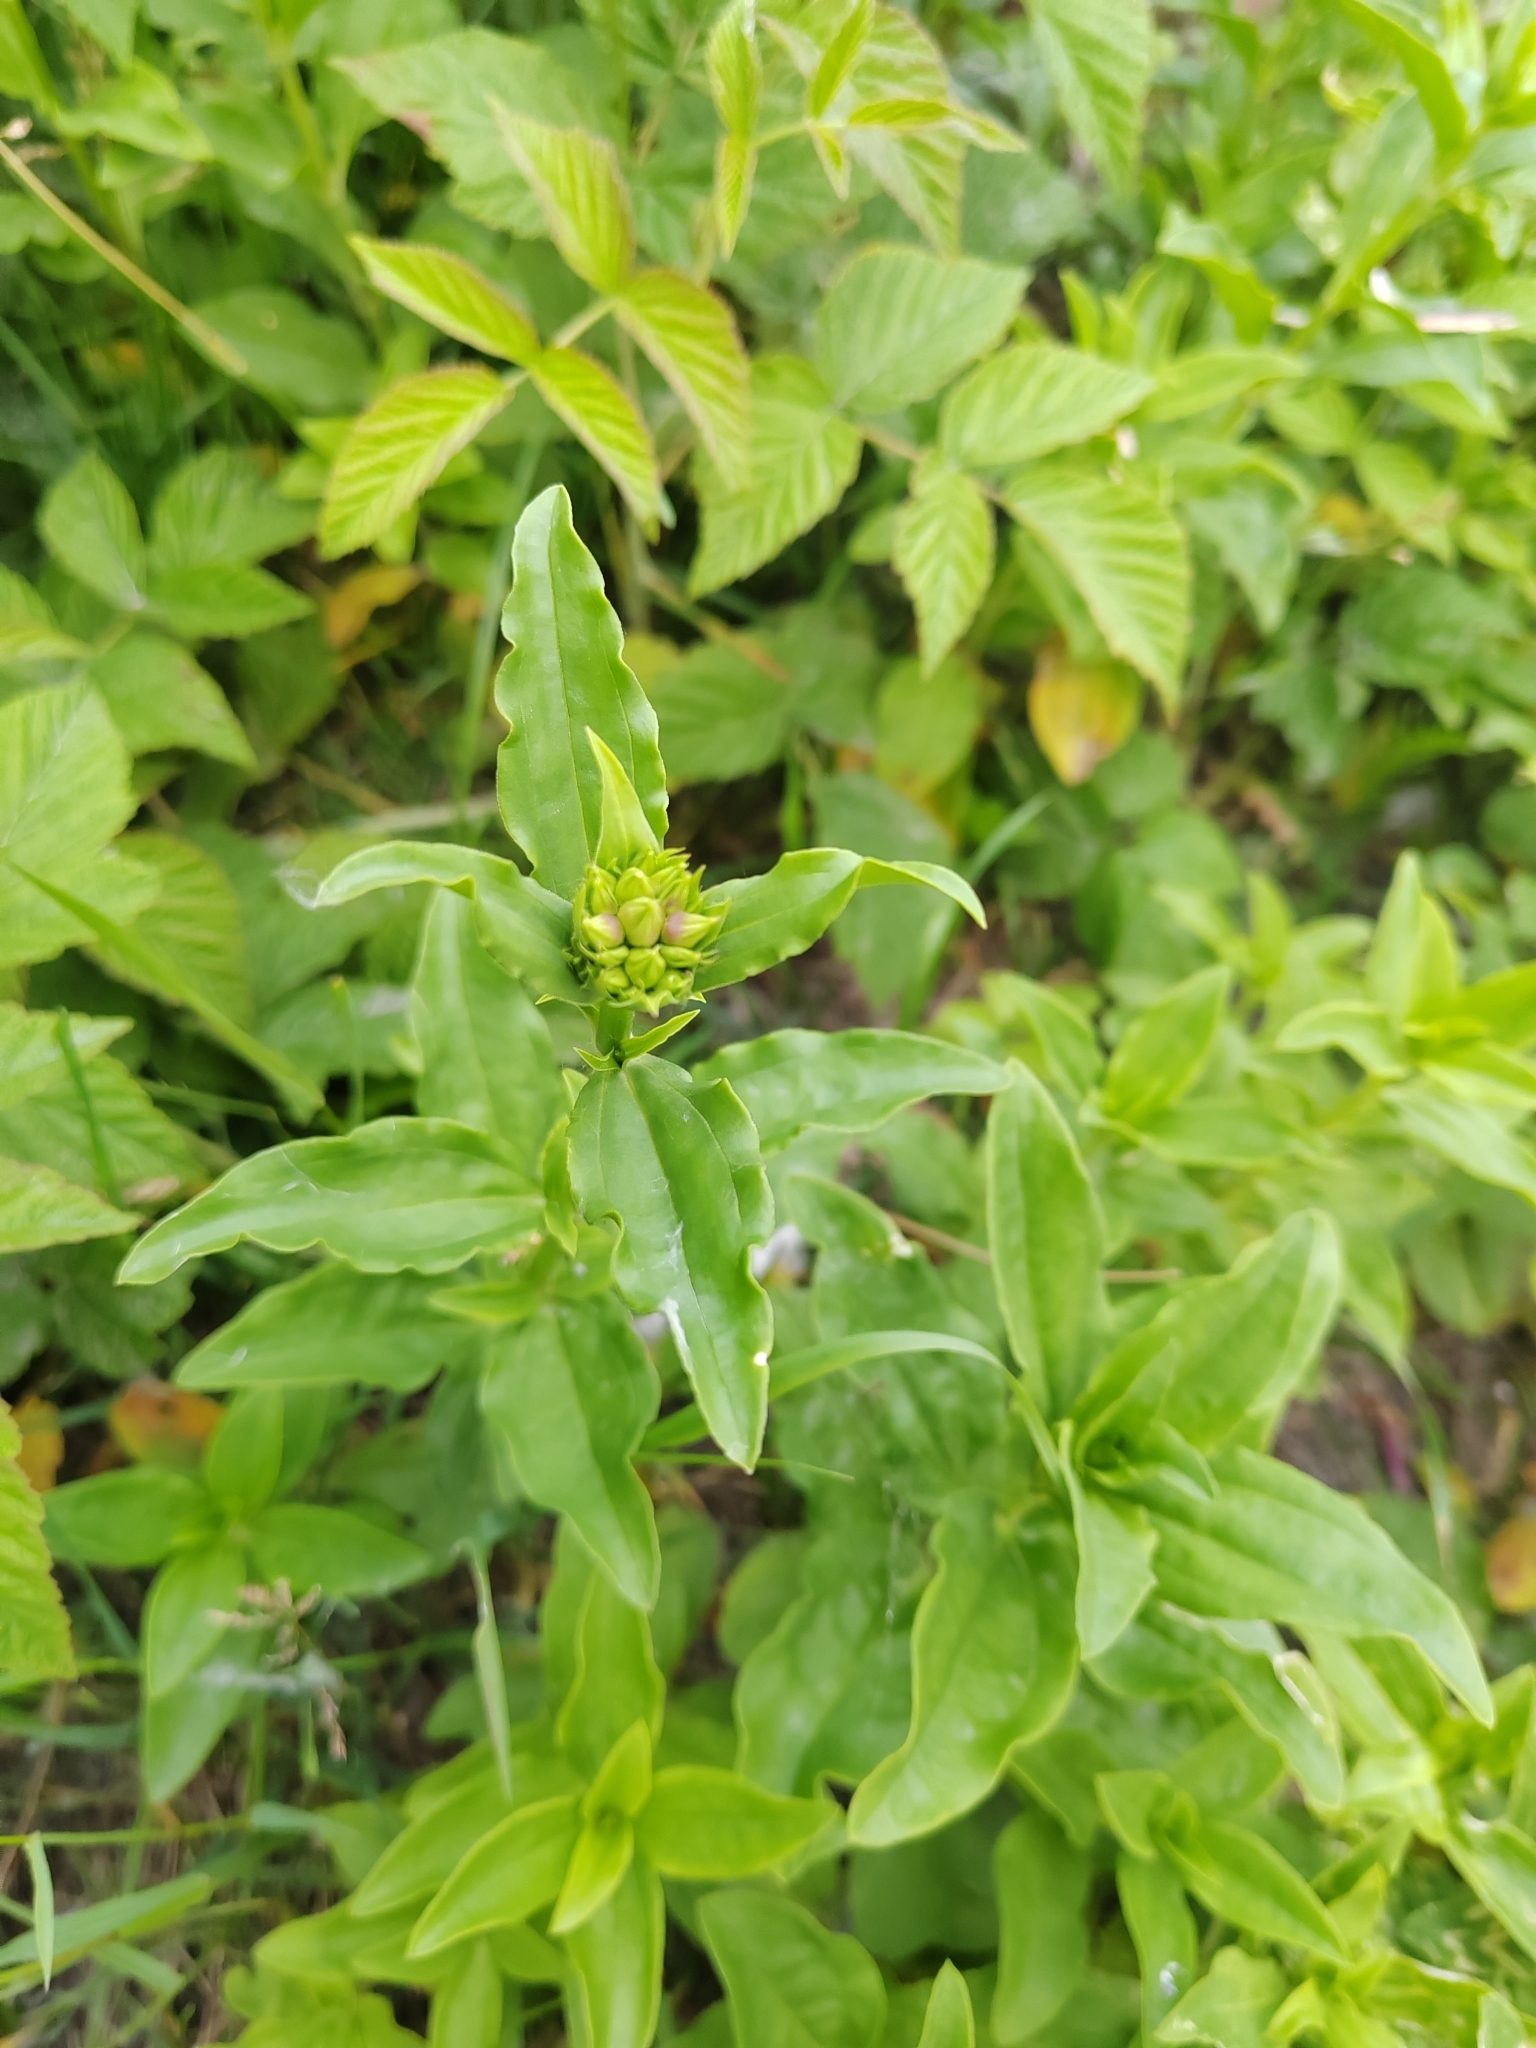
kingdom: Plantae
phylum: Tracheophyta
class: Magnoliopsida
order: Caryophyllales
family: Caryophyllaceae
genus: Saponaria
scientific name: Saponaria officinalis
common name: Soapwort
